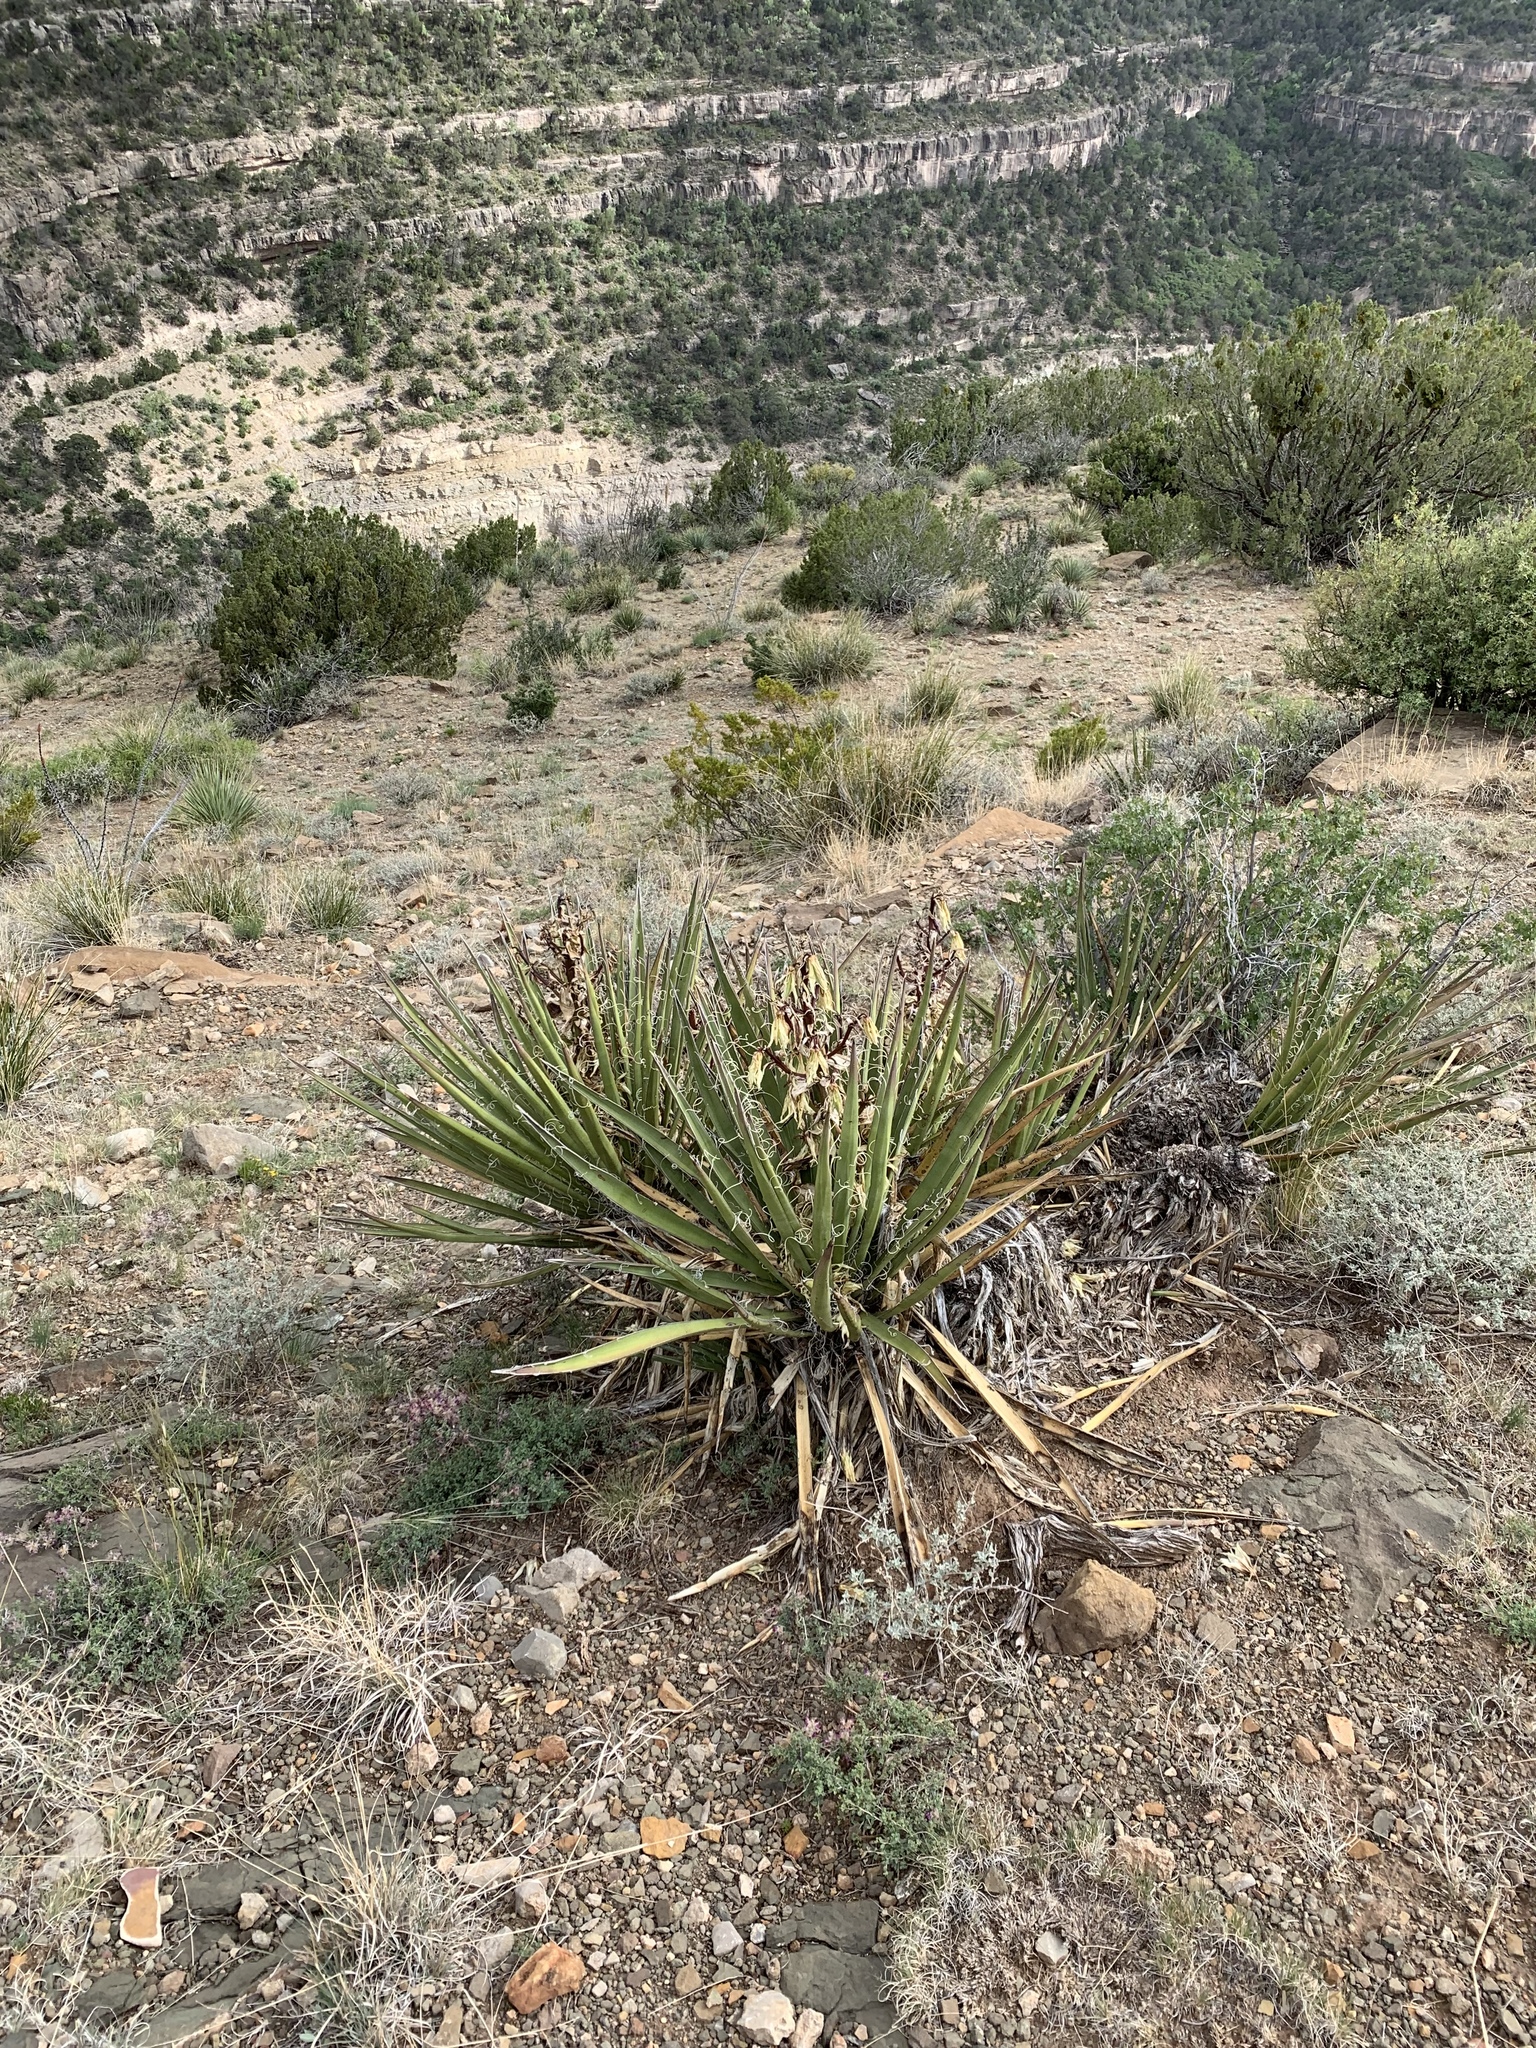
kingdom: Plantae
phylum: Tracheophyta
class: Liliopsida
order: Asparagales
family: Asparagaceae
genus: Yucca
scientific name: Yucca baccata
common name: Banana yucca
